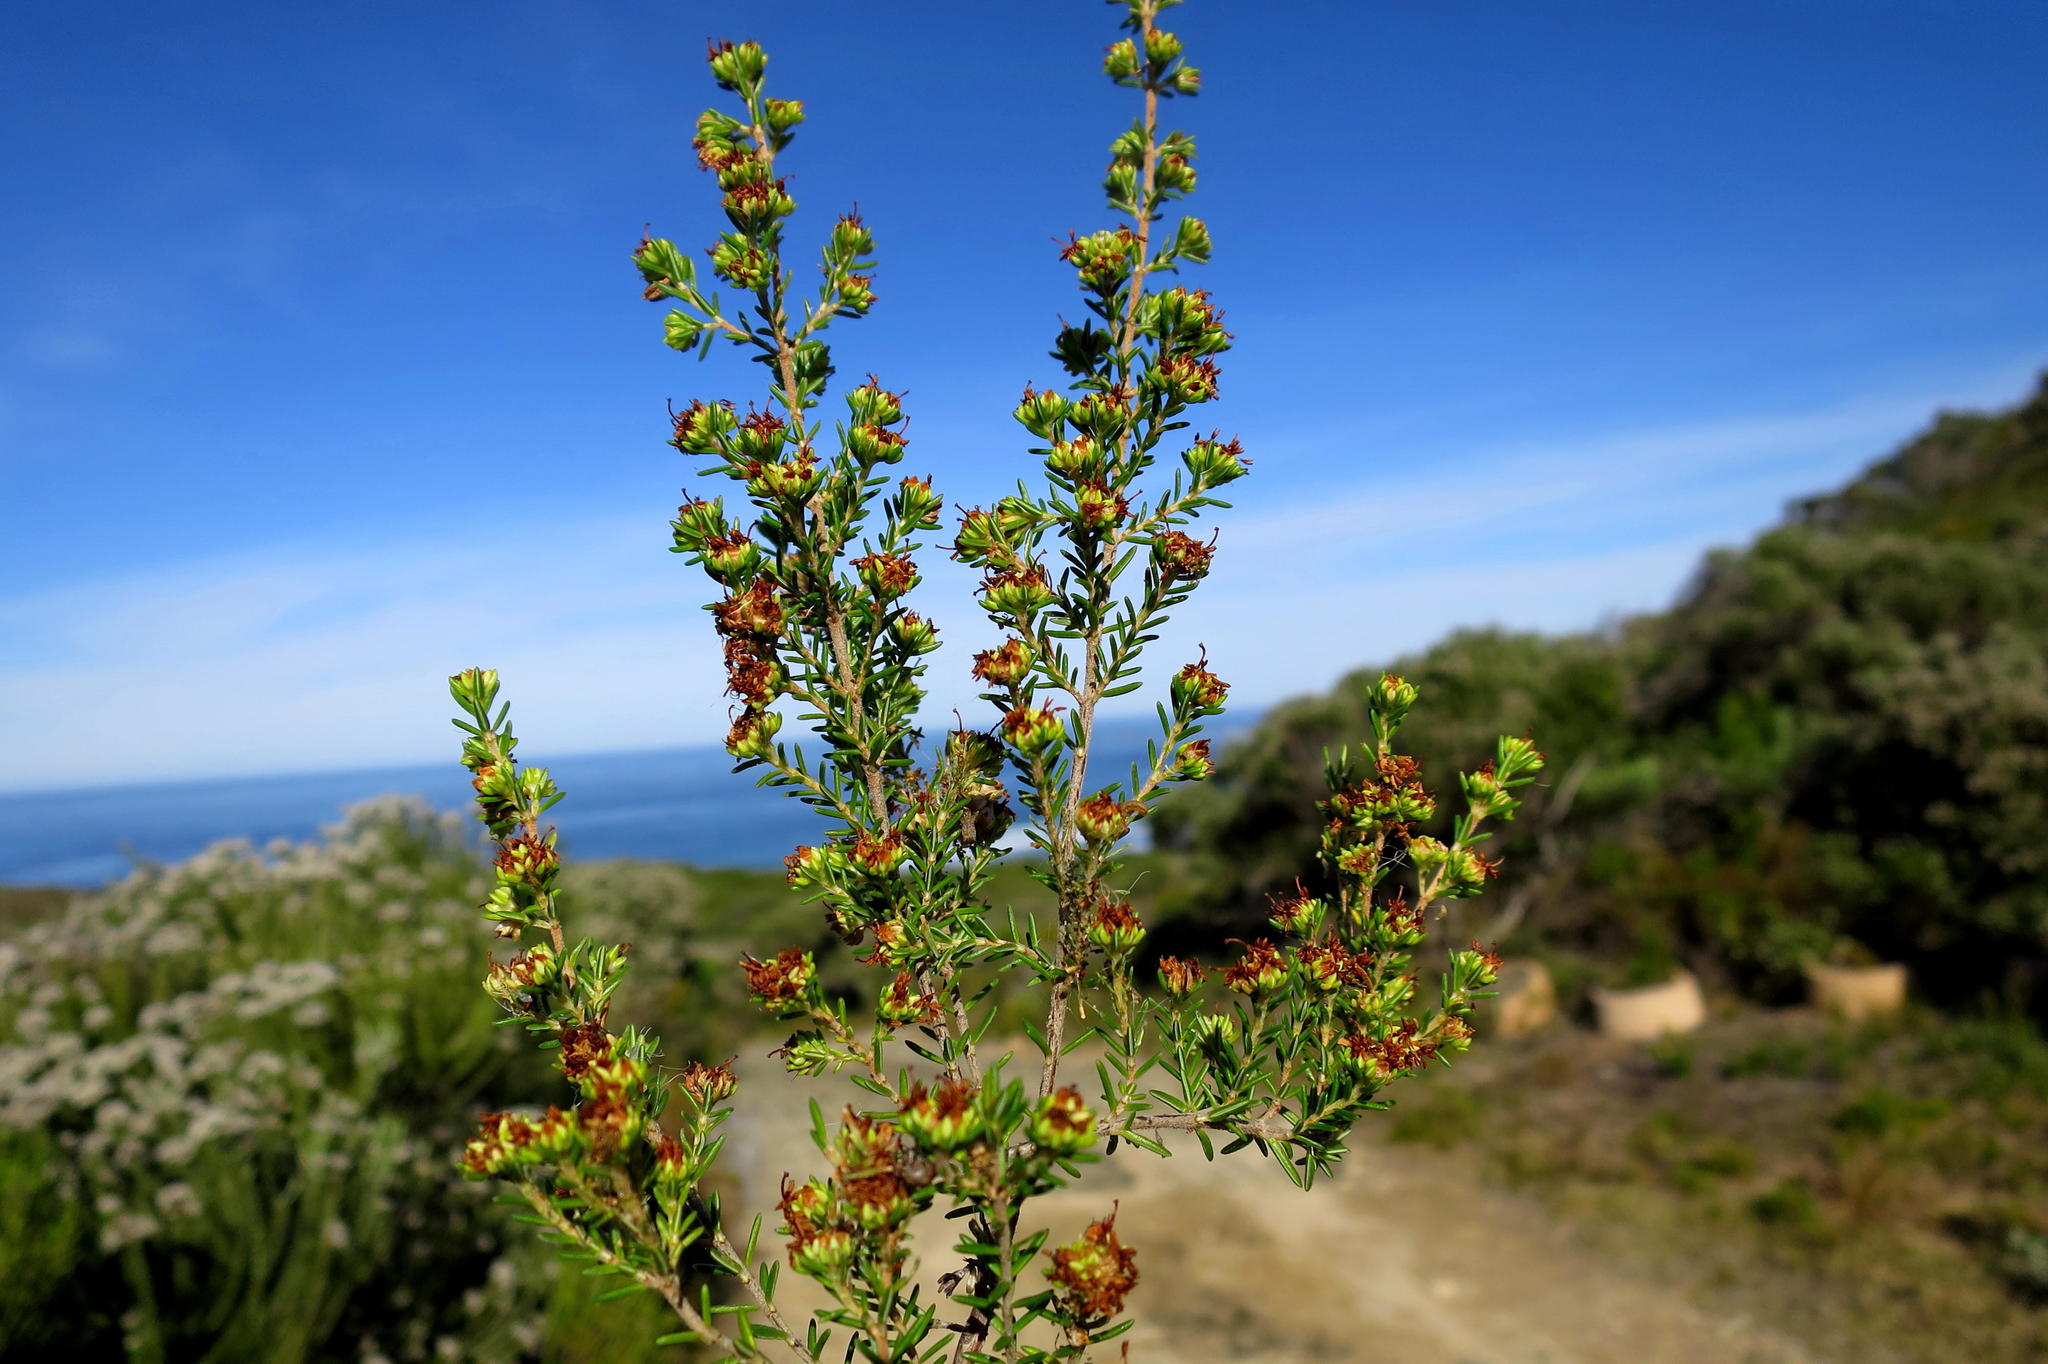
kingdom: Plantae
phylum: Tracheophyta
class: Magnoliopsida
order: Ericales
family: Ericaceae
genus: Erica
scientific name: Erica glumiflora
